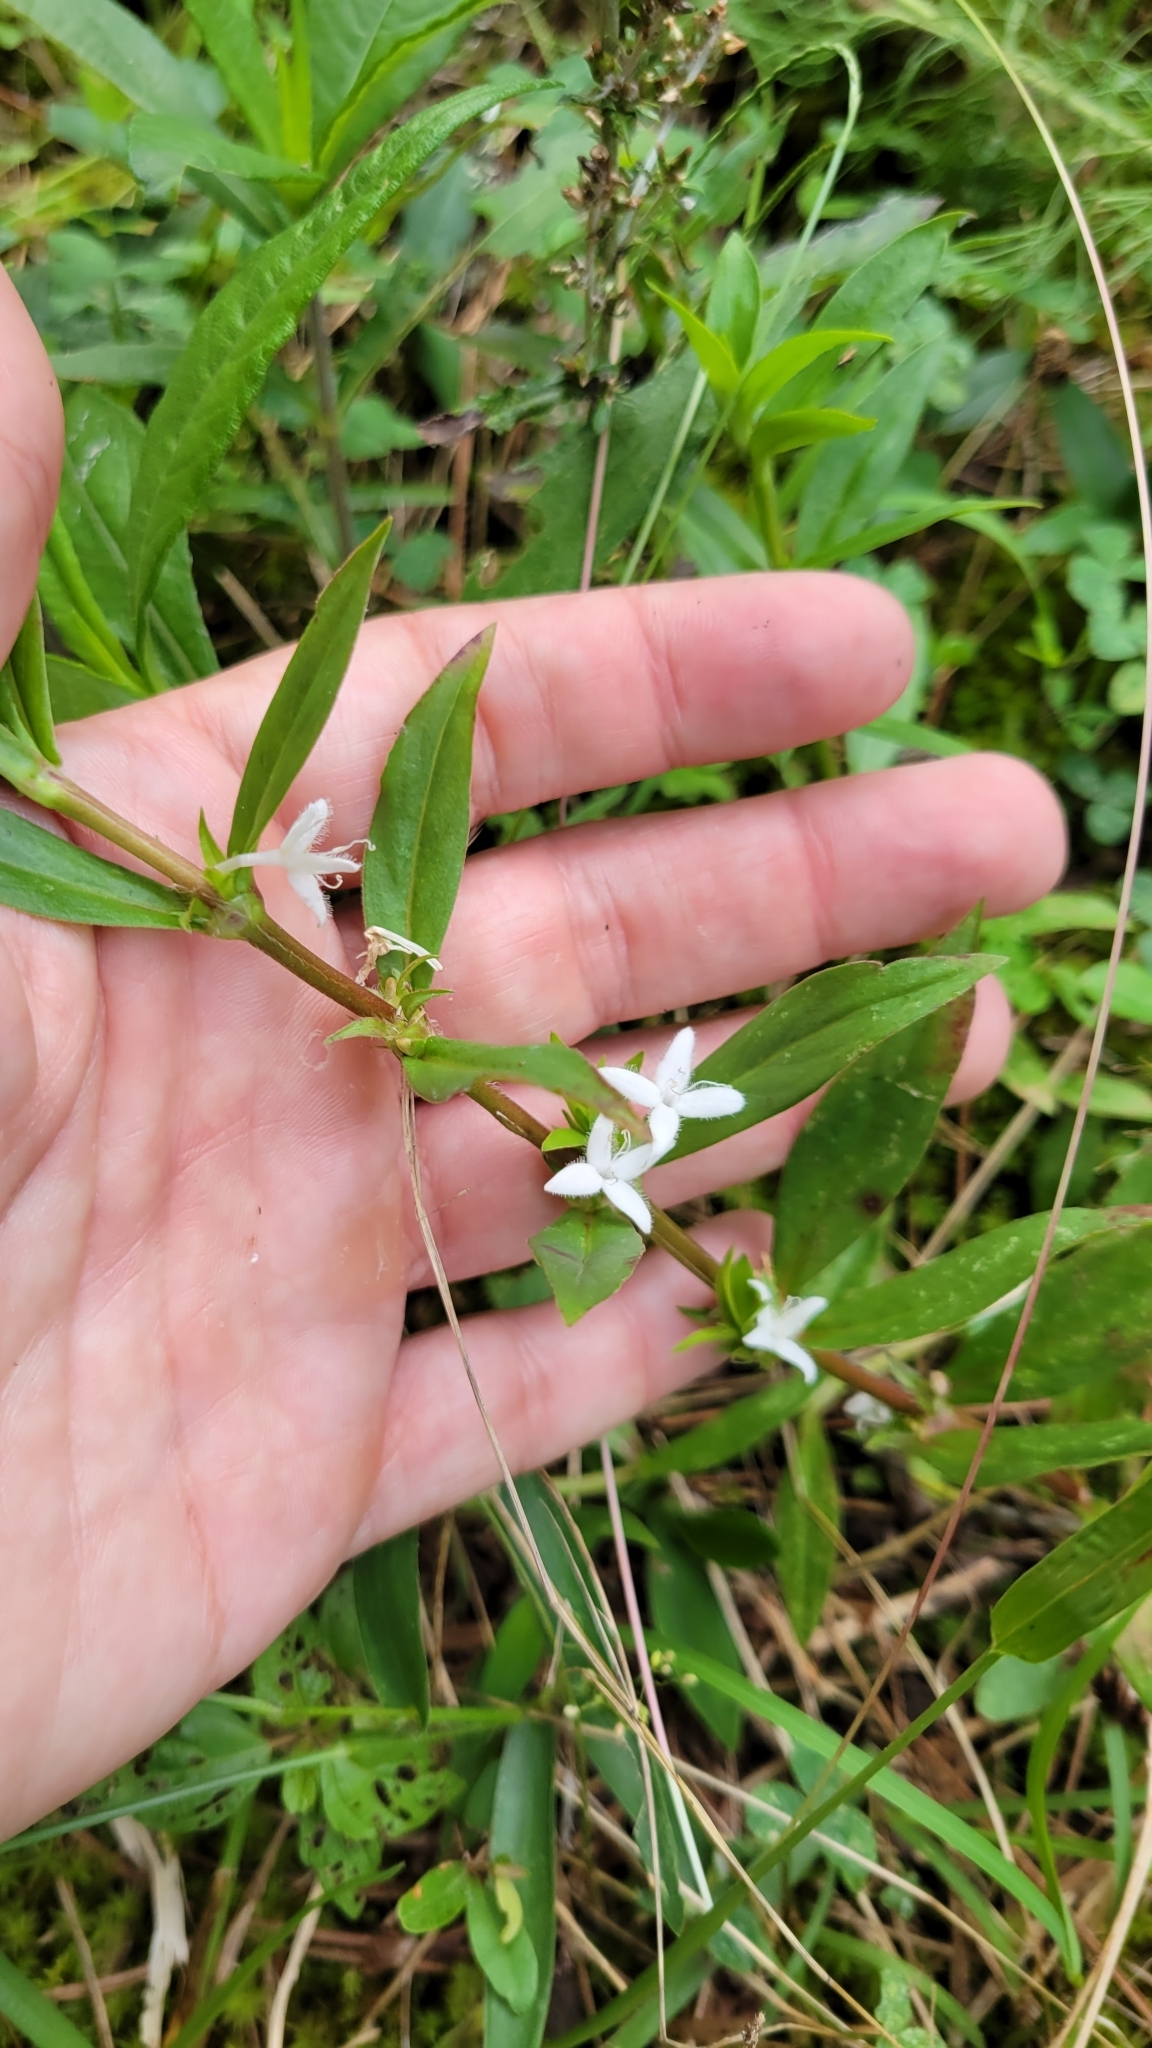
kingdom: Plantae
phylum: Tracheophyta
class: Magnoliopsida
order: Gentianales
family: Rubiaceae
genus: Diodia
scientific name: Diodia virginiana
